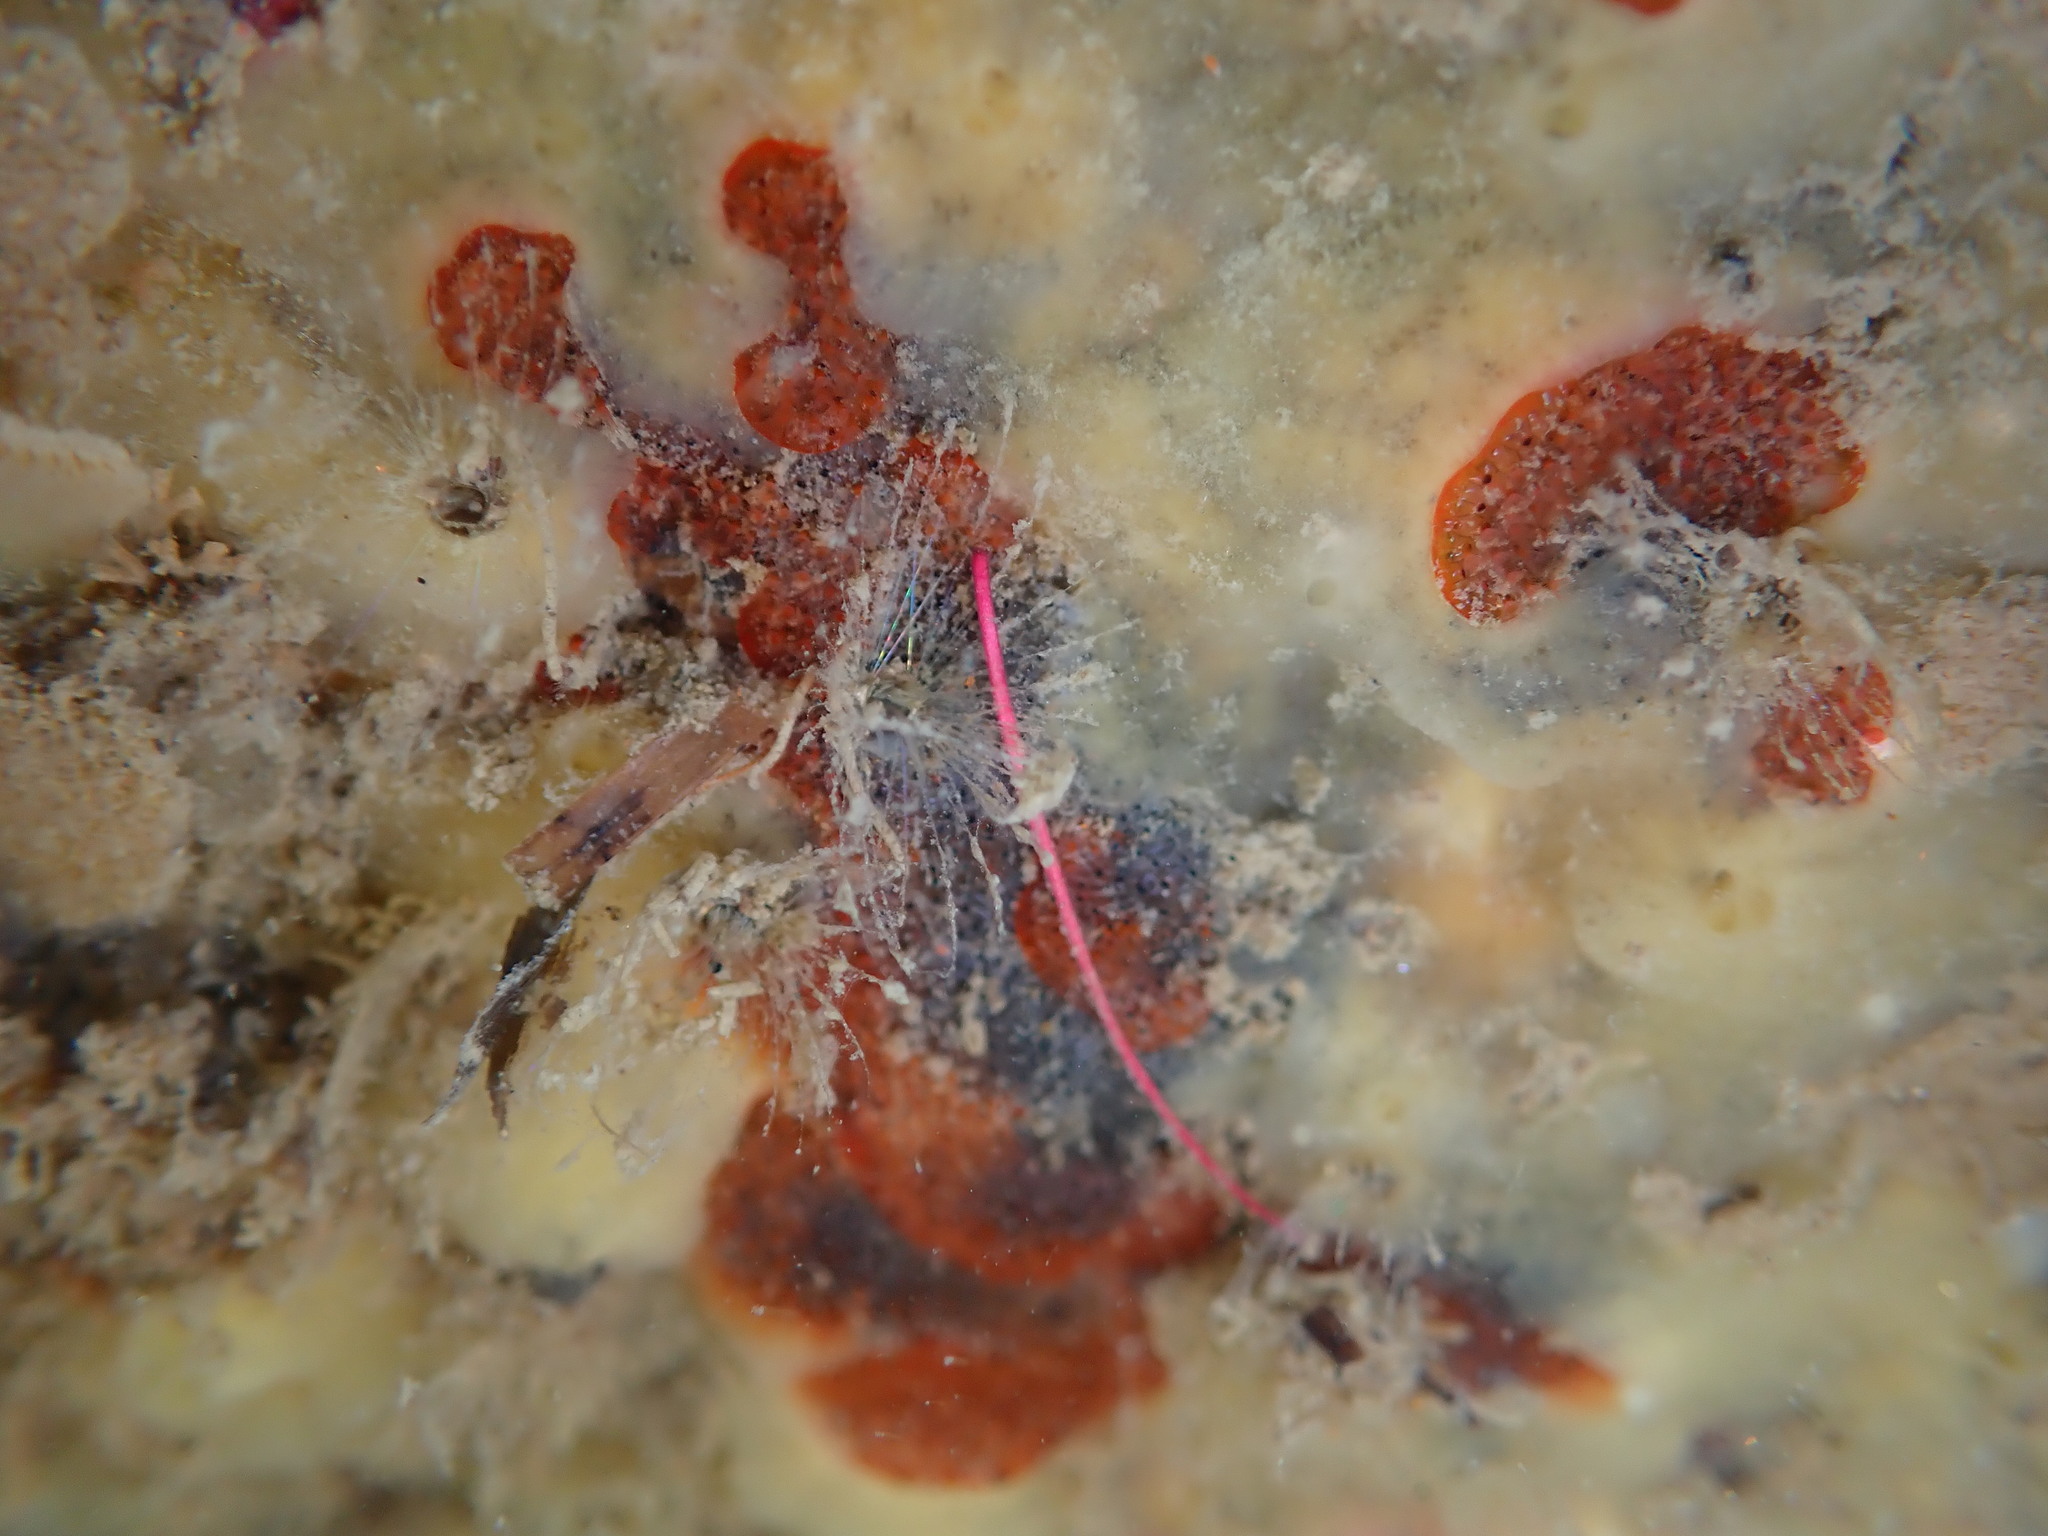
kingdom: Animalia
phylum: Bryozoa
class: Gymnolaemata
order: Cheilostomatida
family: Watersiporidae
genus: Watersipora
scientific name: Watersipora subatra
